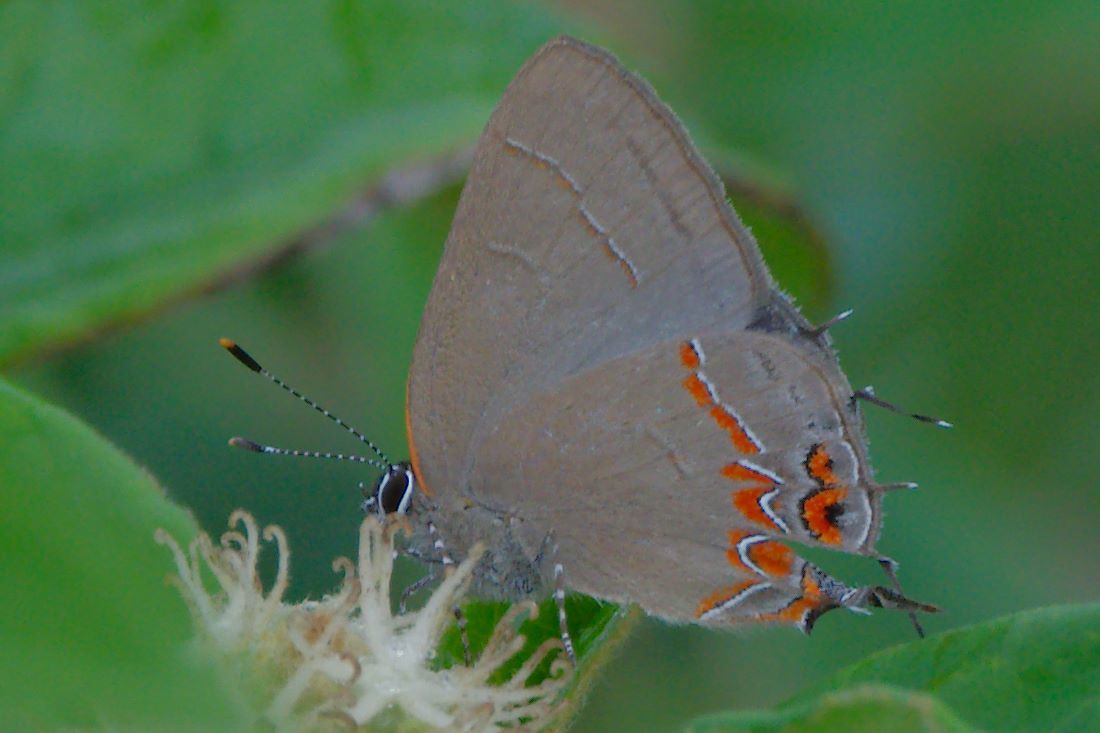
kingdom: Animalia
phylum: Arthropoda
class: Insecta
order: Lepidoptera
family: Lycaenidae
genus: Calycopis
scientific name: Calycopis isobeon
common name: Dusky-blue groundstreak
